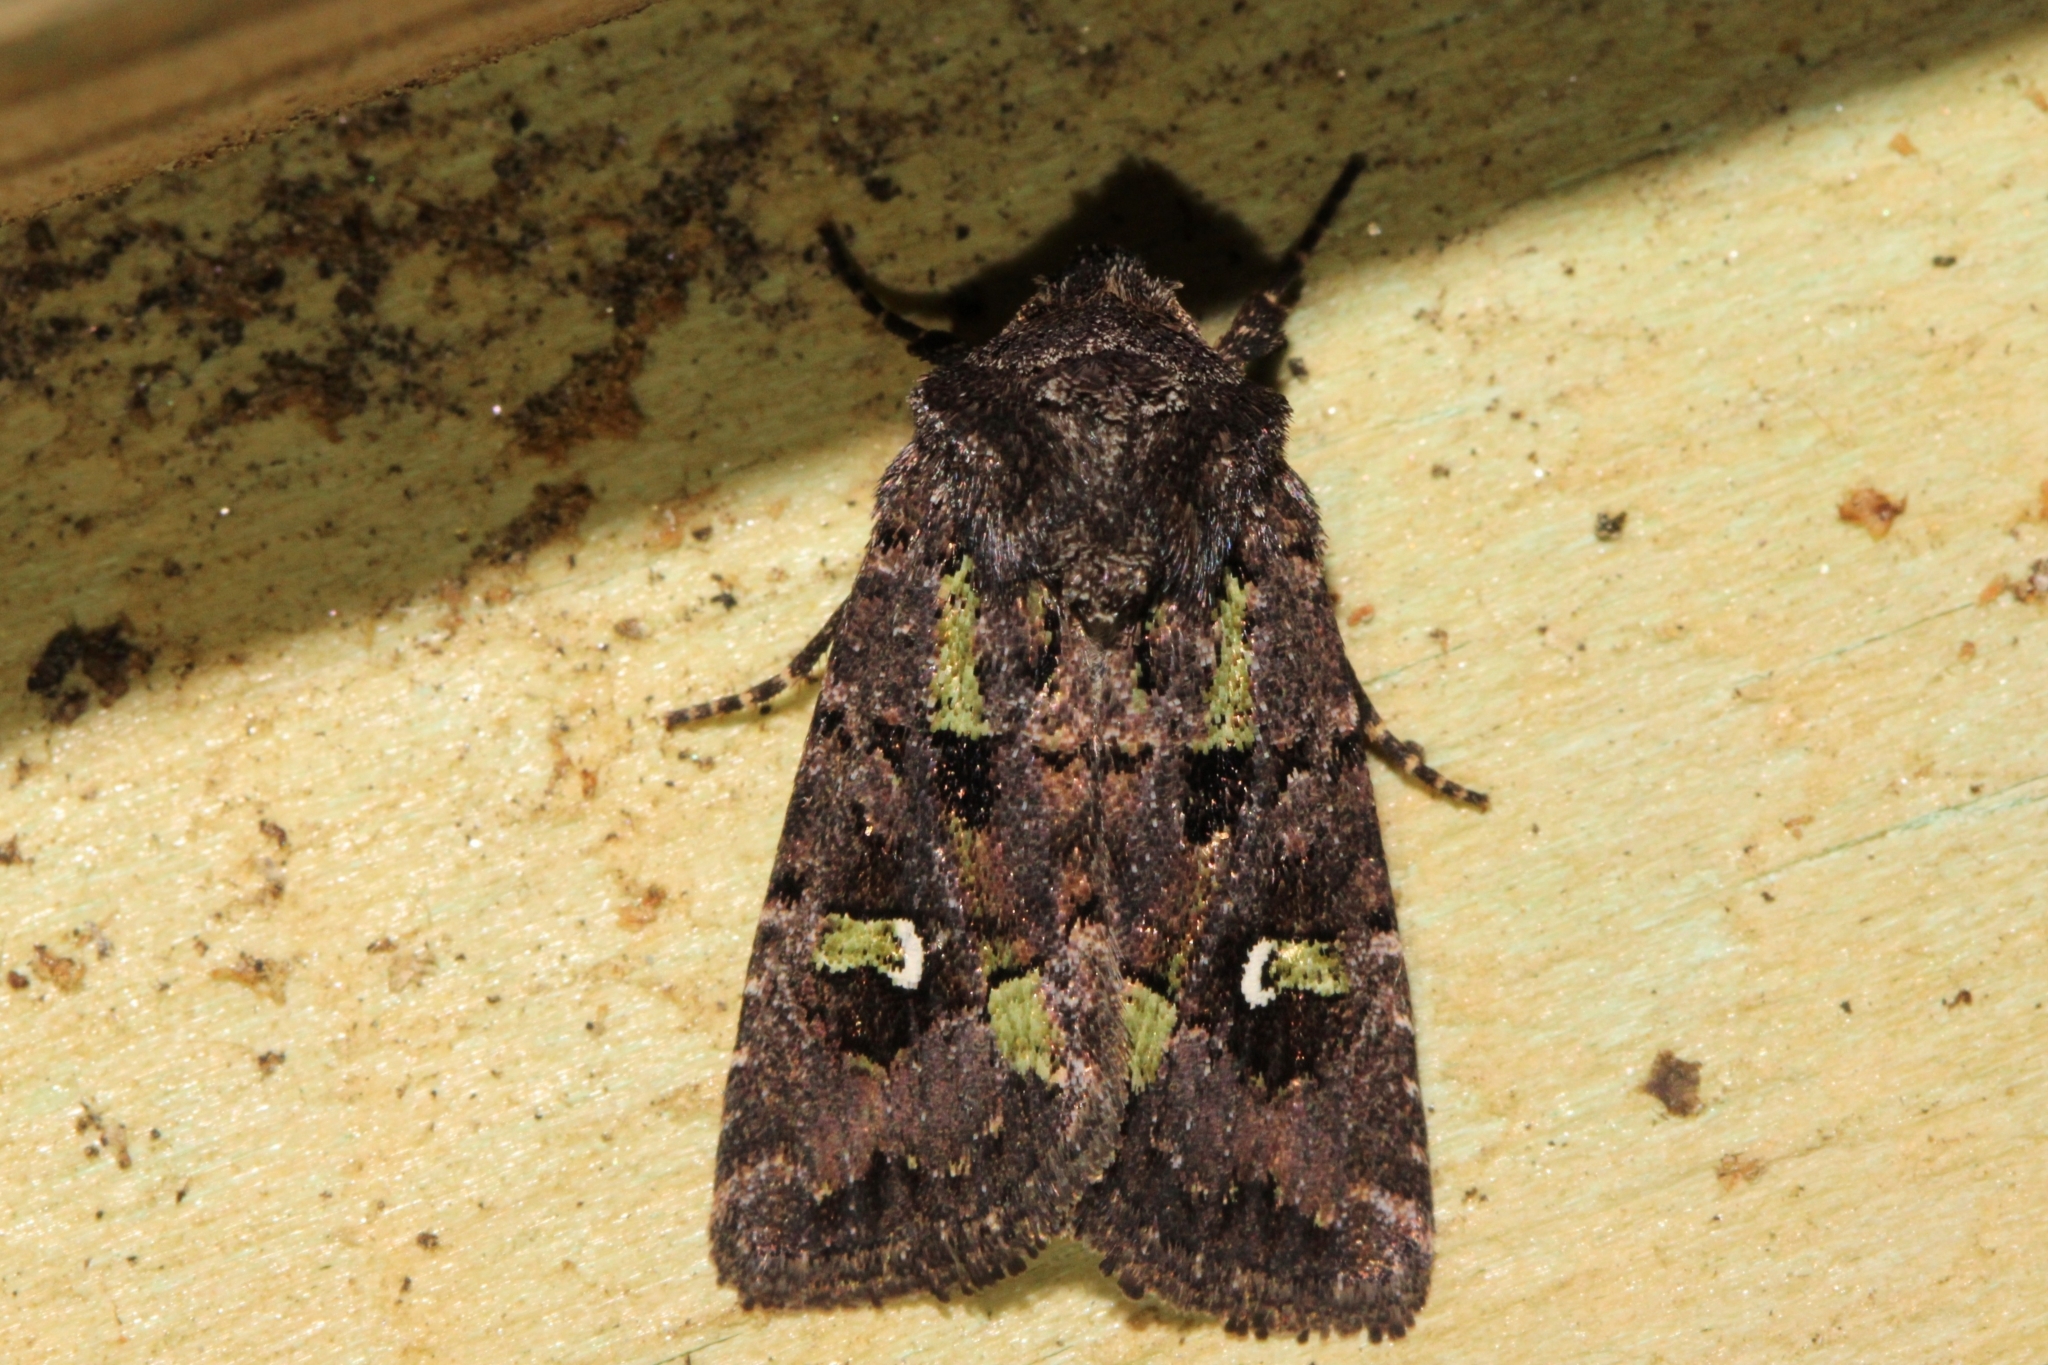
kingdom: Animalia
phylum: Arthropoda
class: Insecta
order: Lepidoptera
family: Noctuidae
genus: Lacinipolia
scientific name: Lacinipolia renigera
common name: Kidney-spotted minor
